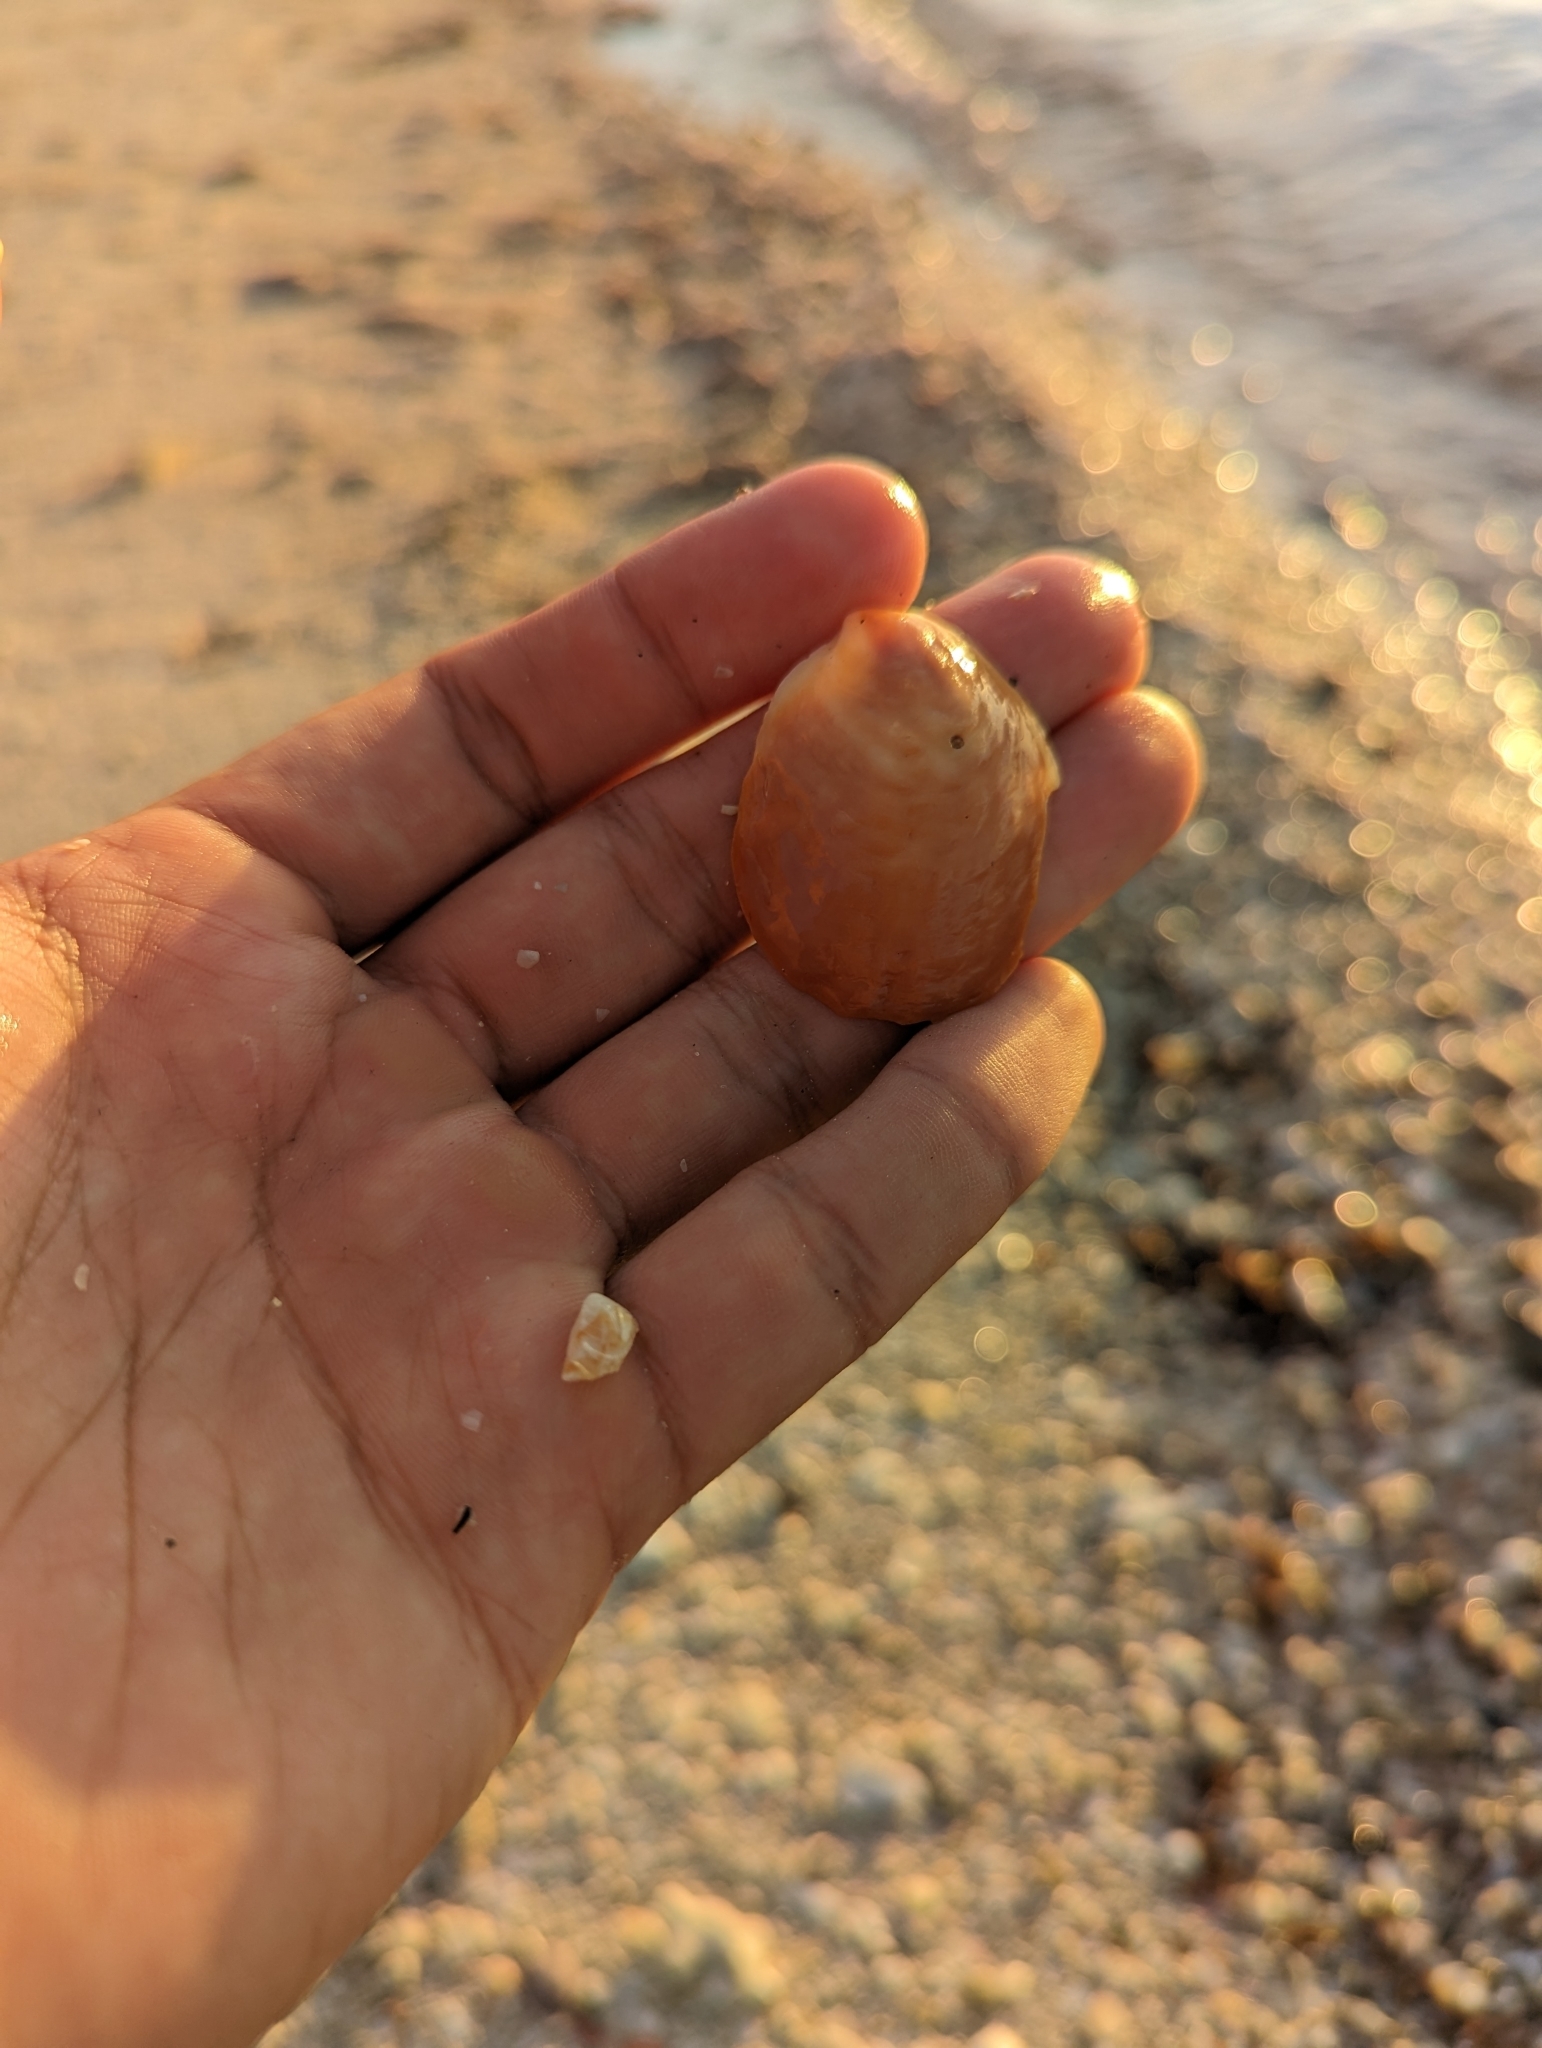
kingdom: Animalia
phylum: Mollusca
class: Gastropoda
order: Littorinimorpha
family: Calyptraeidae
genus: Crepidula
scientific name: Crepidula onyx
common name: Onyx slippersnail
